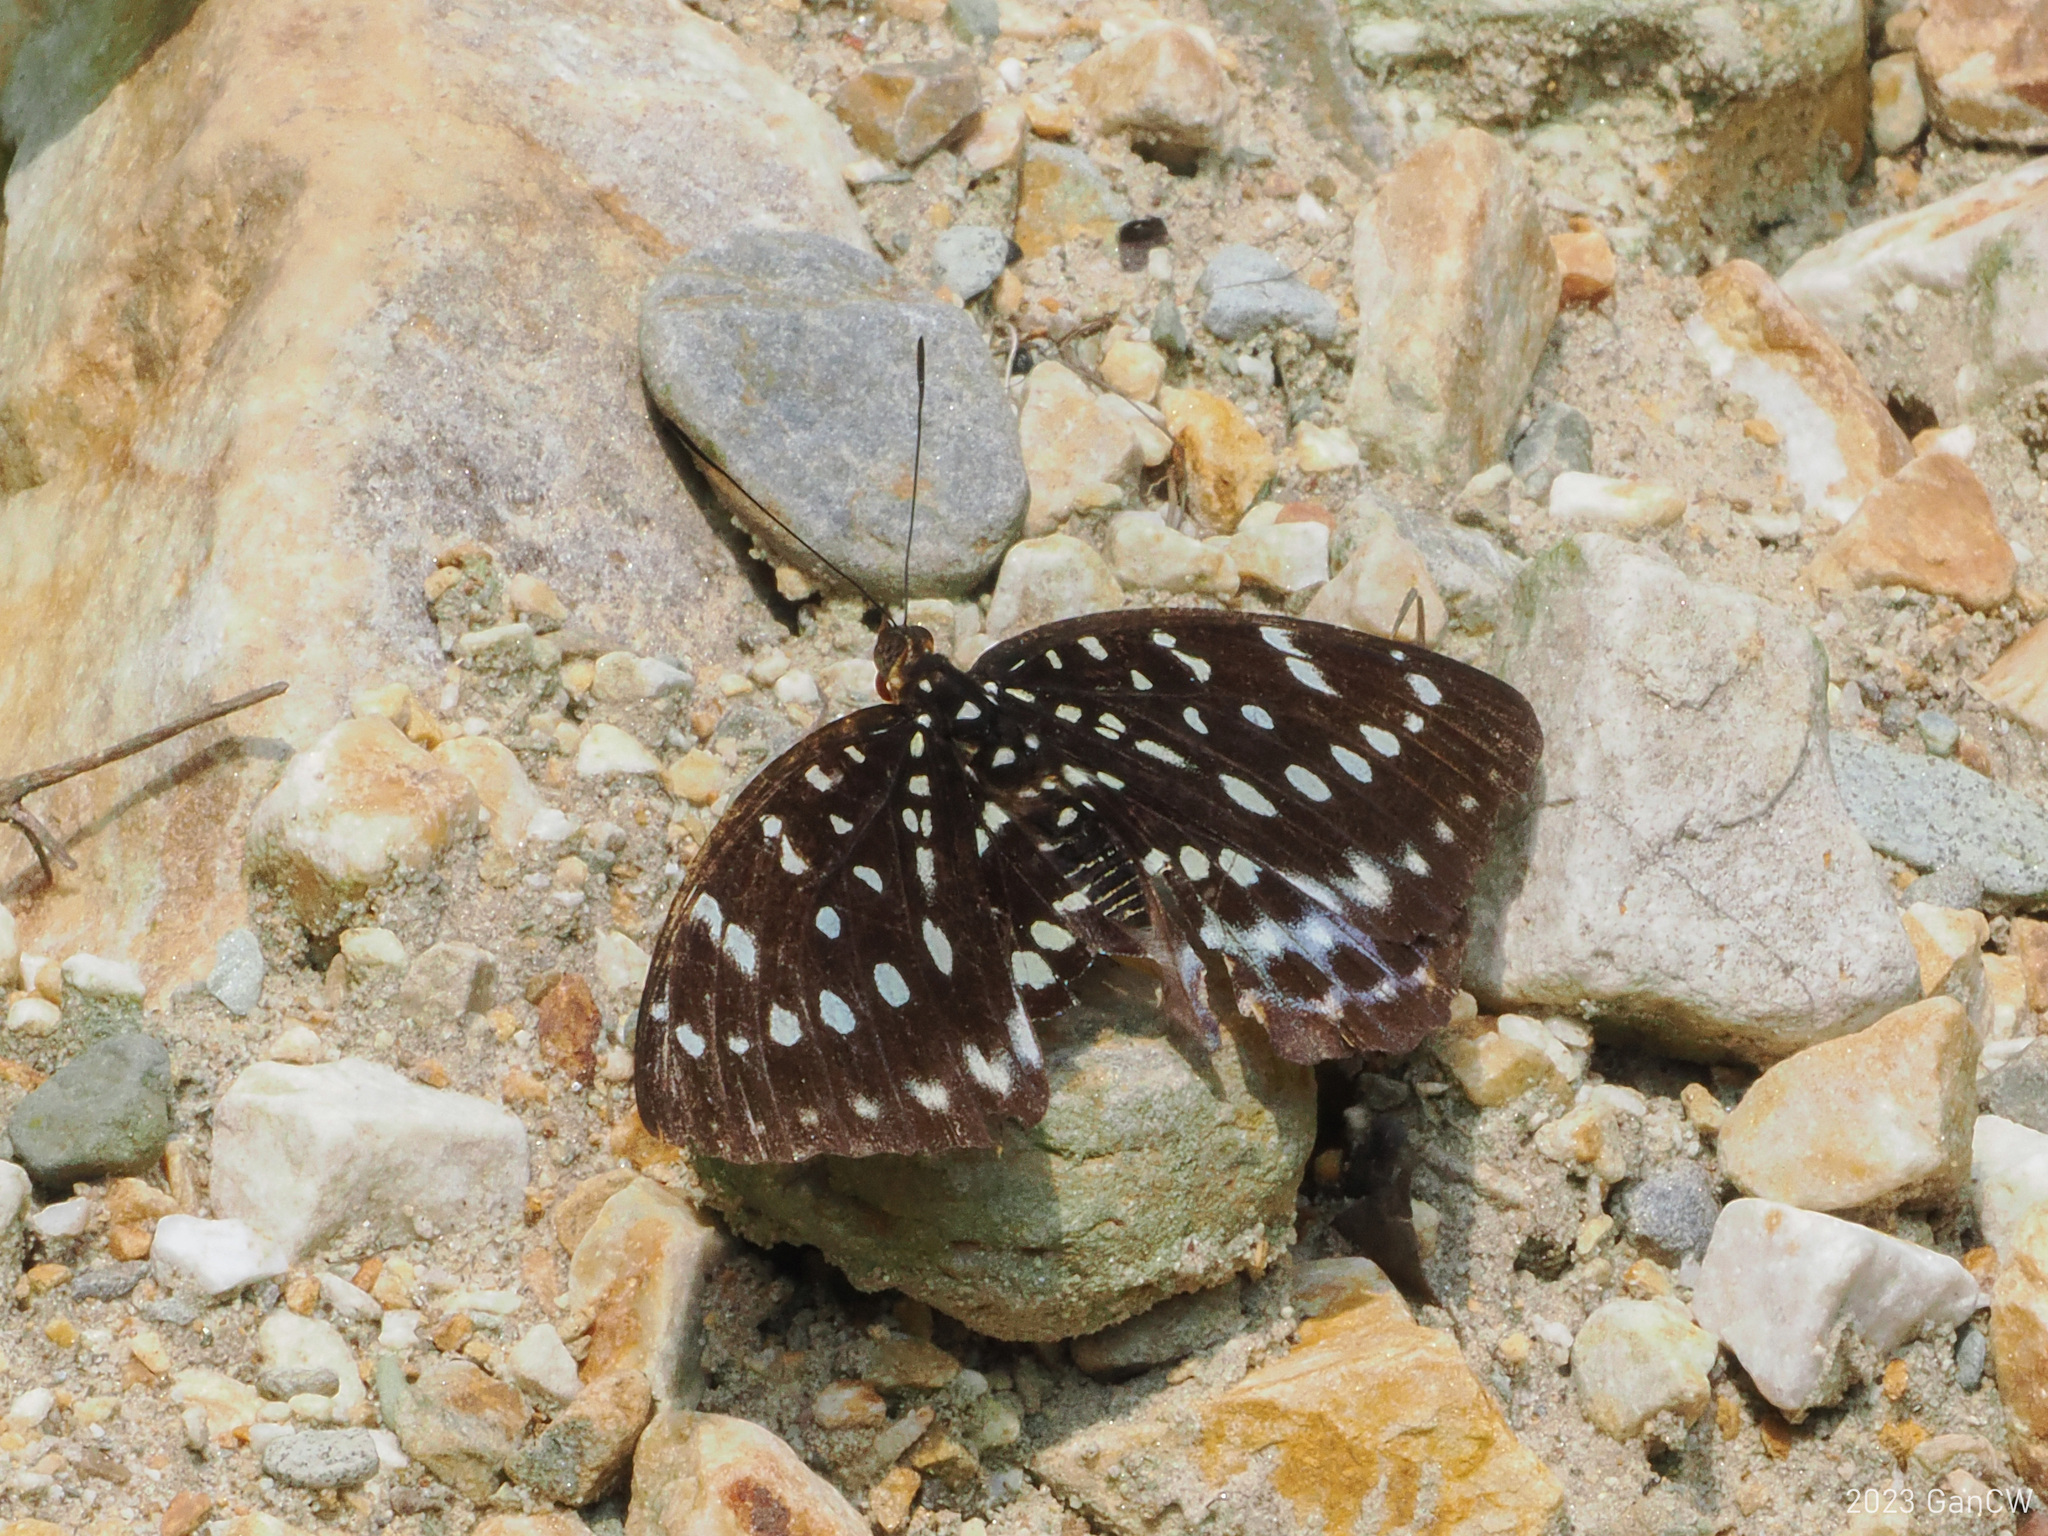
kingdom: Animalia
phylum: Arthropoda
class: Insecta
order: Lepidoptera
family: Nymphalidae
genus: Lexias
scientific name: Lexias dirtea
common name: Black-tipped archduke
